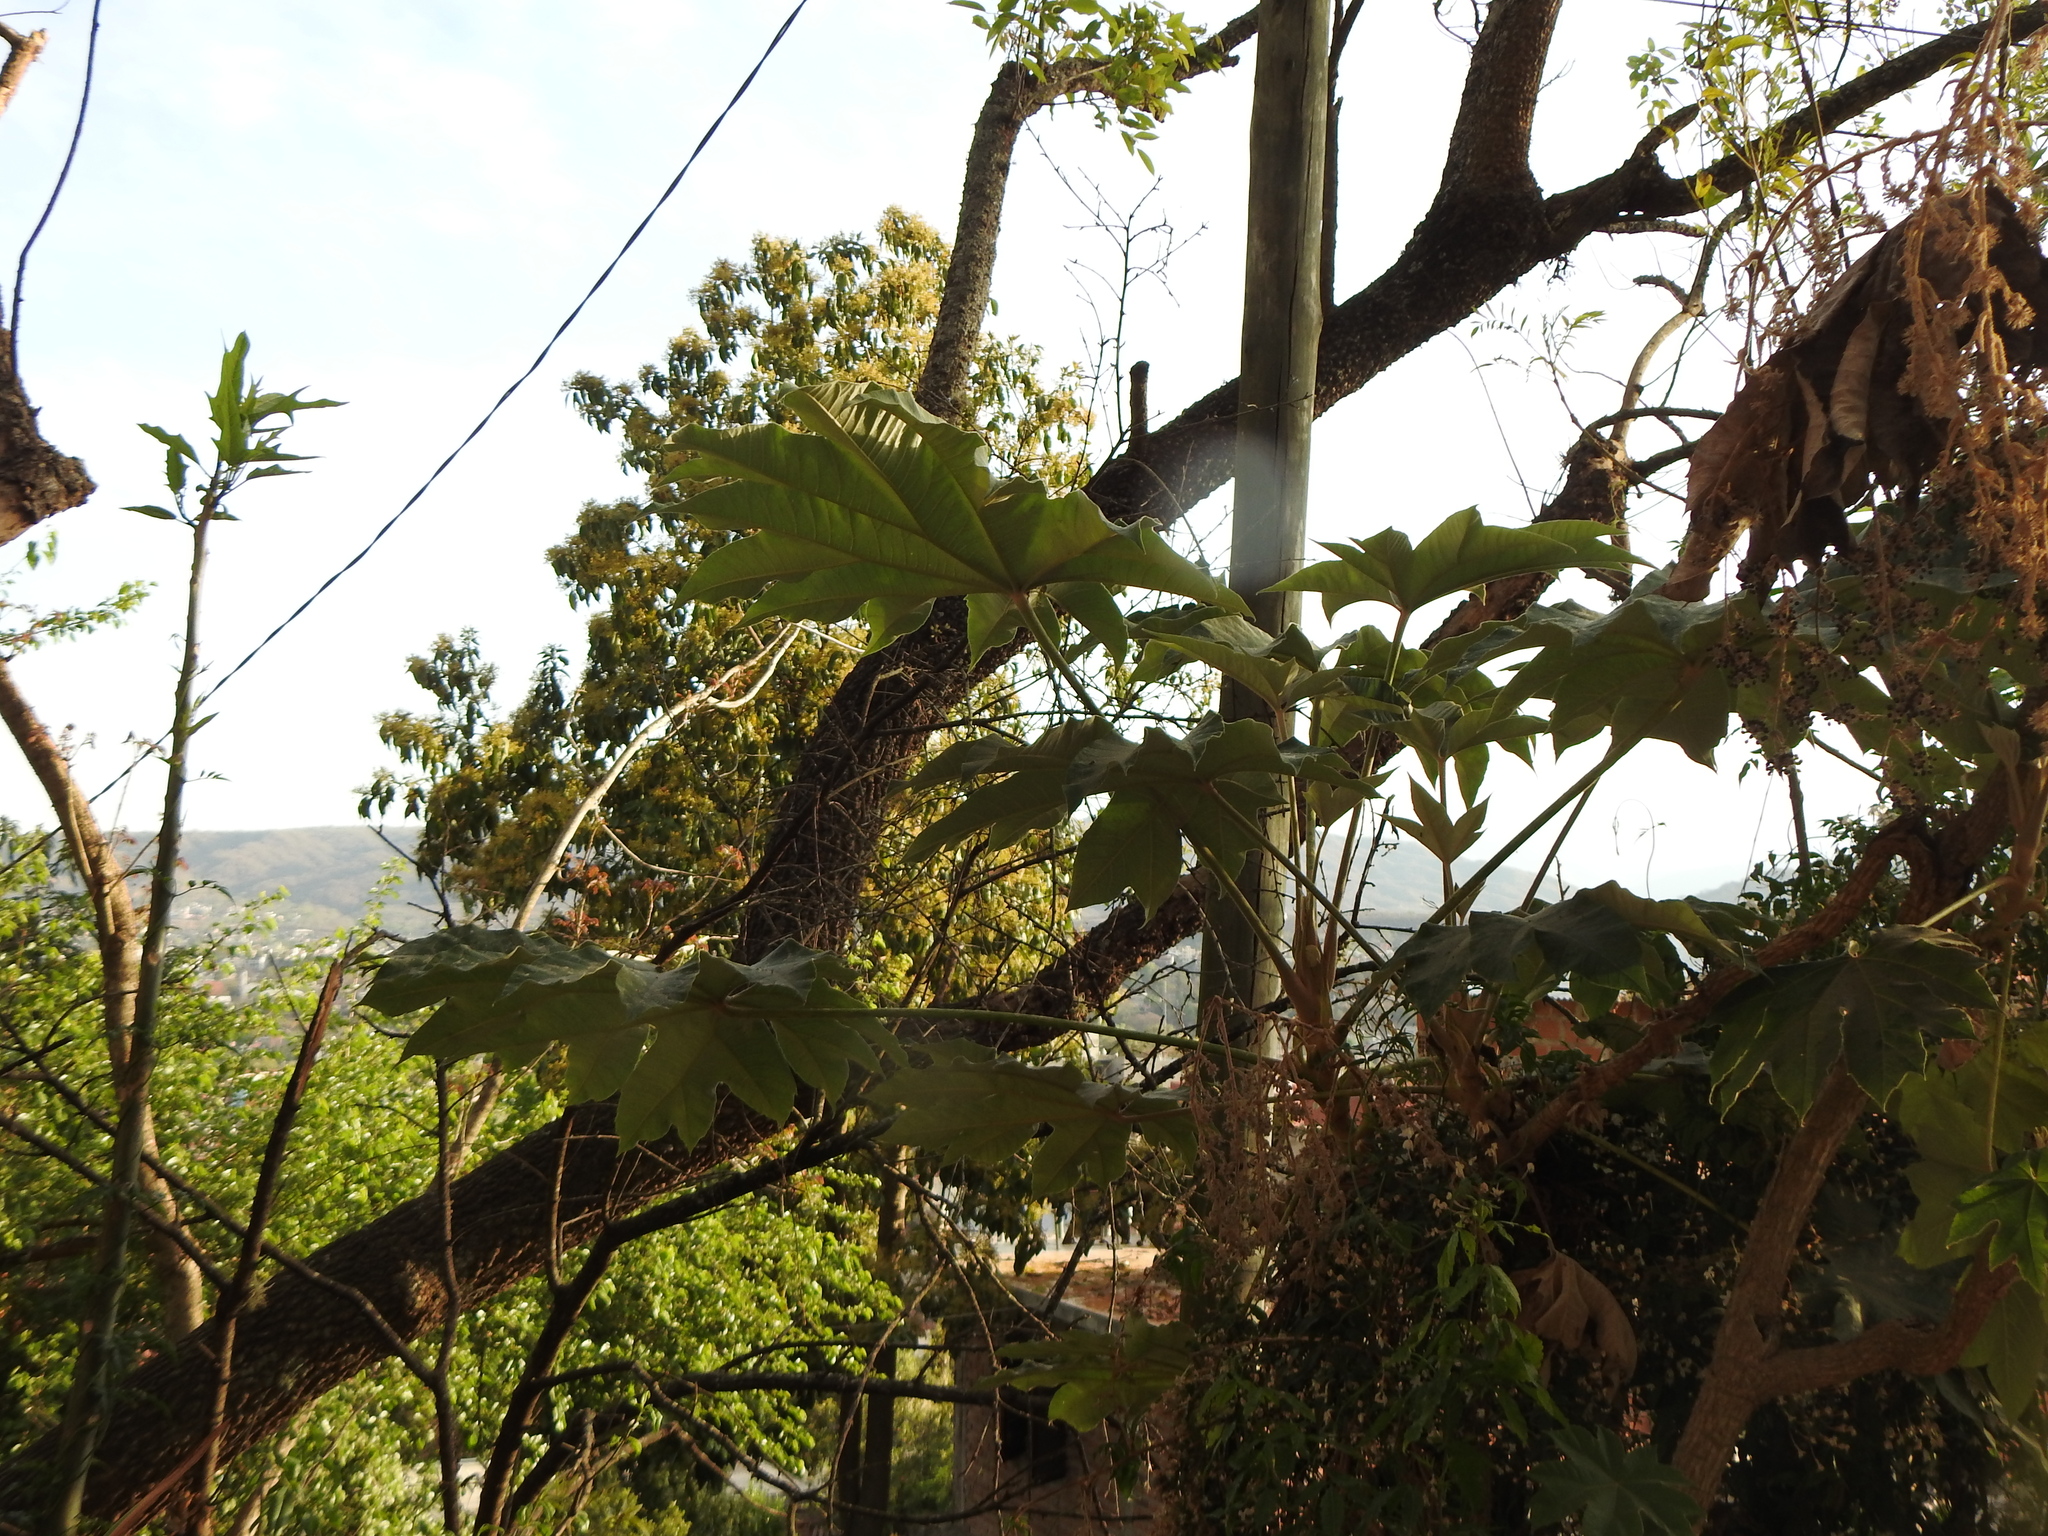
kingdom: Plantae
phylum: Tracheophyta
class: Magnoliopsida
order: Apiales
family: Araliaceae
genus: Tetrapanax
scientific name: Tetrapanax papyrifer
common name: Rice-paper plant
